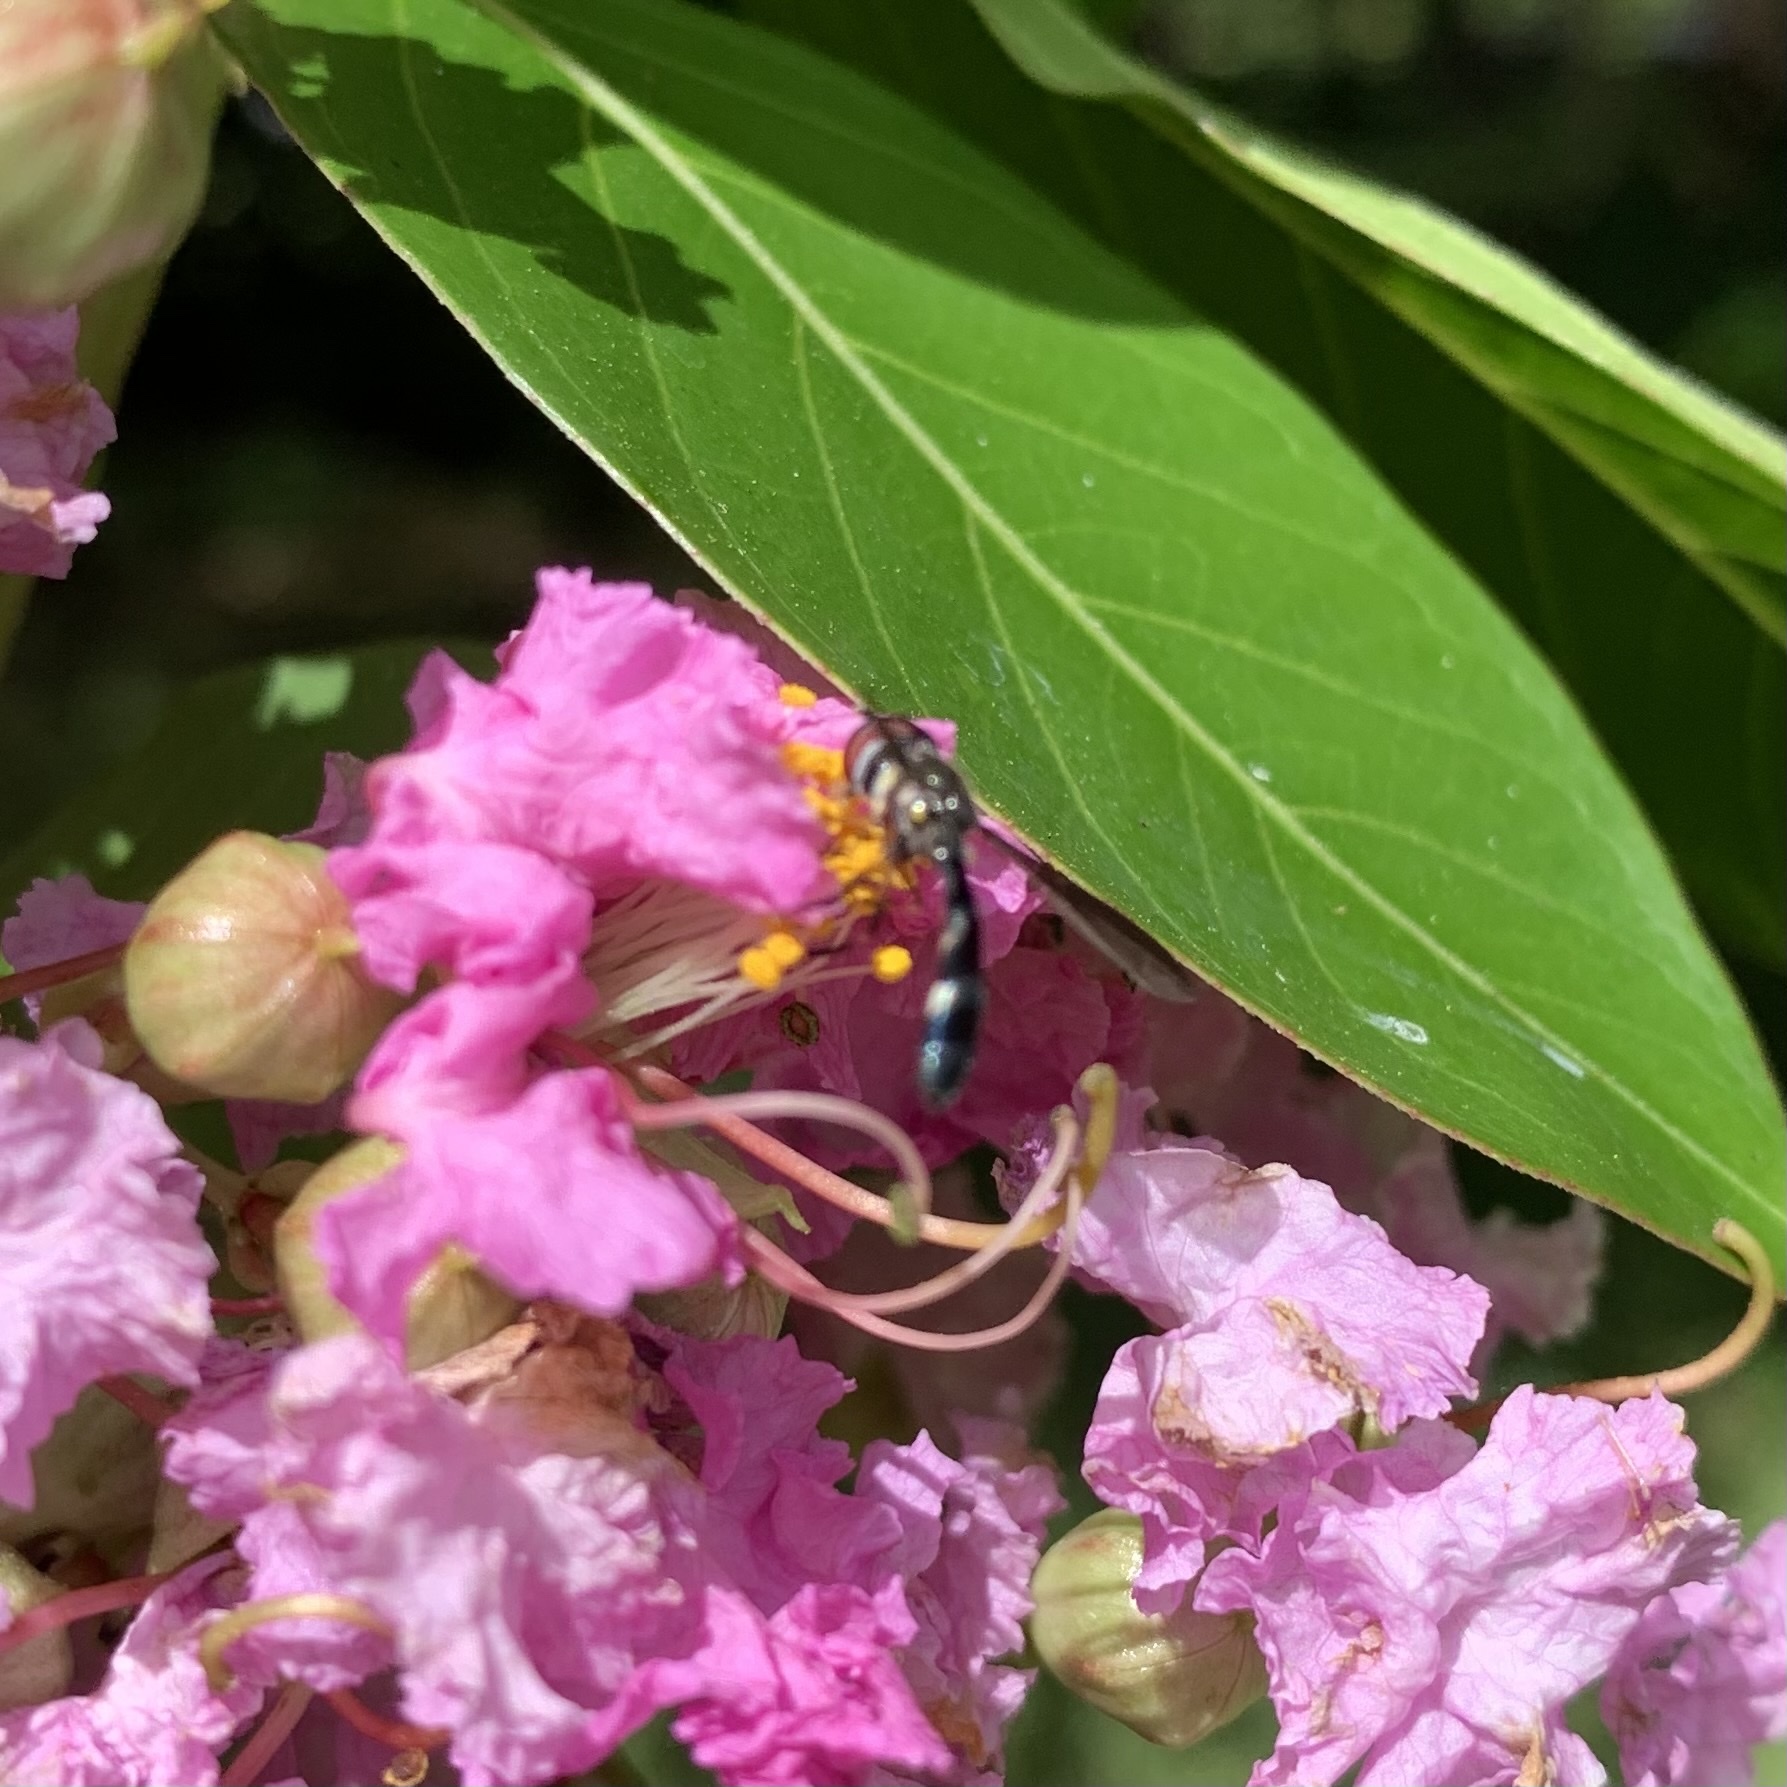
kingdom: Animalia
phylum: Arthropoda
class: Insecta
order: Diptera
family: Syrphidae
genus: Ocyptamus
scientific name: Ocyptamus costatus
